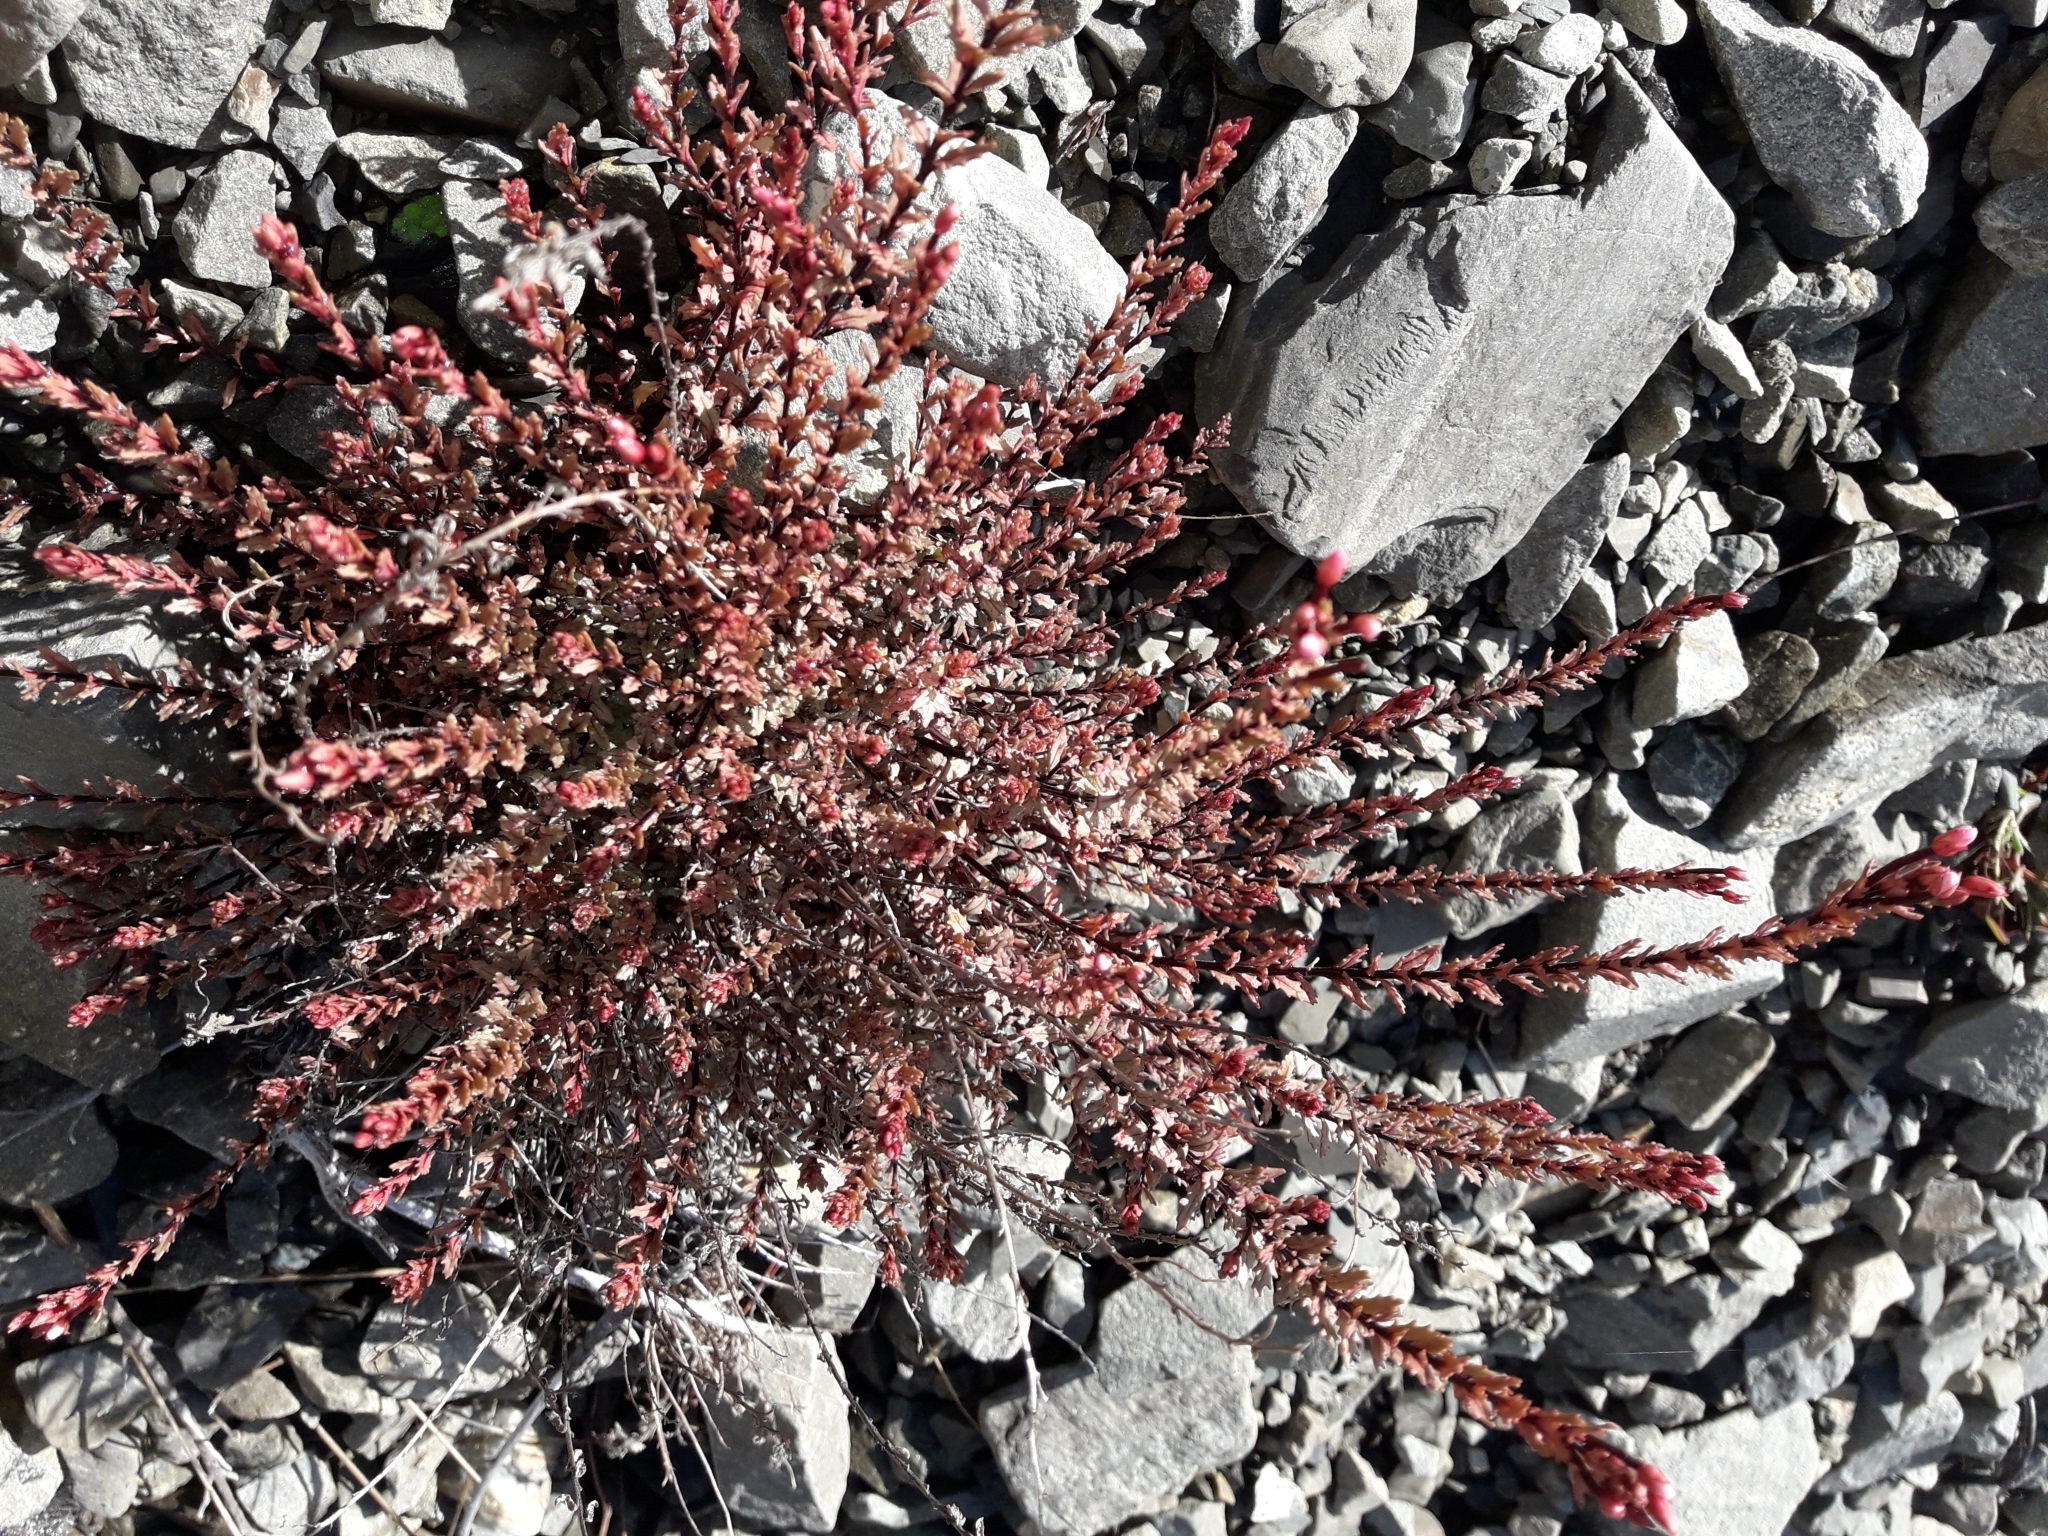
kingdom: Plantae
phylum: Tracheophyta
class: Magnoliopsida
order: Myrtales
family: Onagraceae
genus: Epilobium
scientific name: Epilobium melanocaulon
